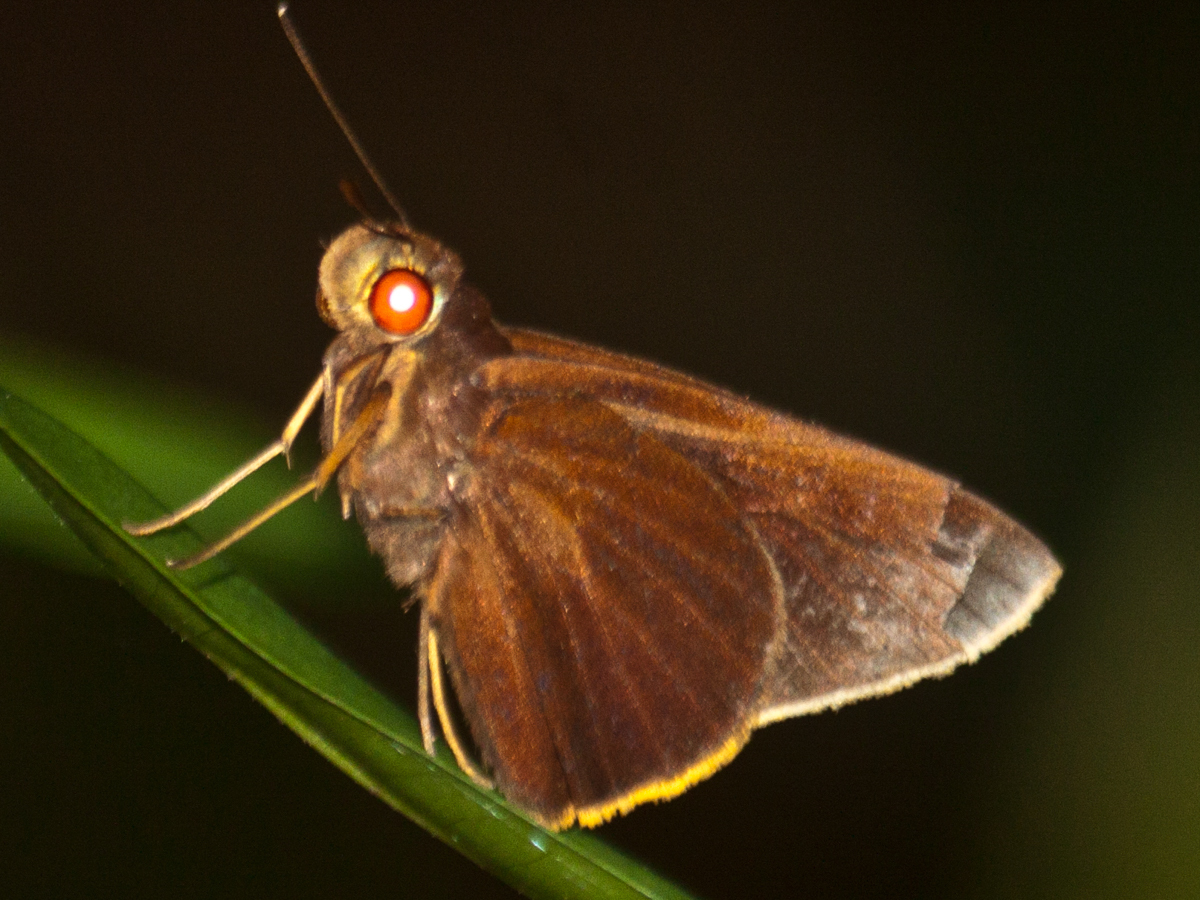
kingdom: Animalia
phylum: Arthropoda
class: Insecta
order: Lepidoptera
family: Hesperiidae
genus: Matapa
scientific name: Matapa druna
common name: Grey-brand redeye
